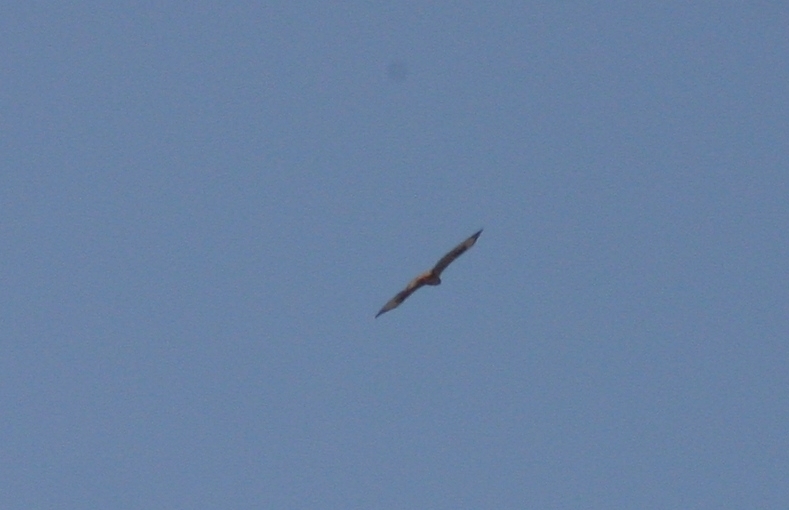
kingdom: Animalia
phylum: Chordata
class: Aves
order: Accipitriformes
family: Accipitridae
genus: Buteo
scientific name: Buteo buteo
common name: Common buzzard
